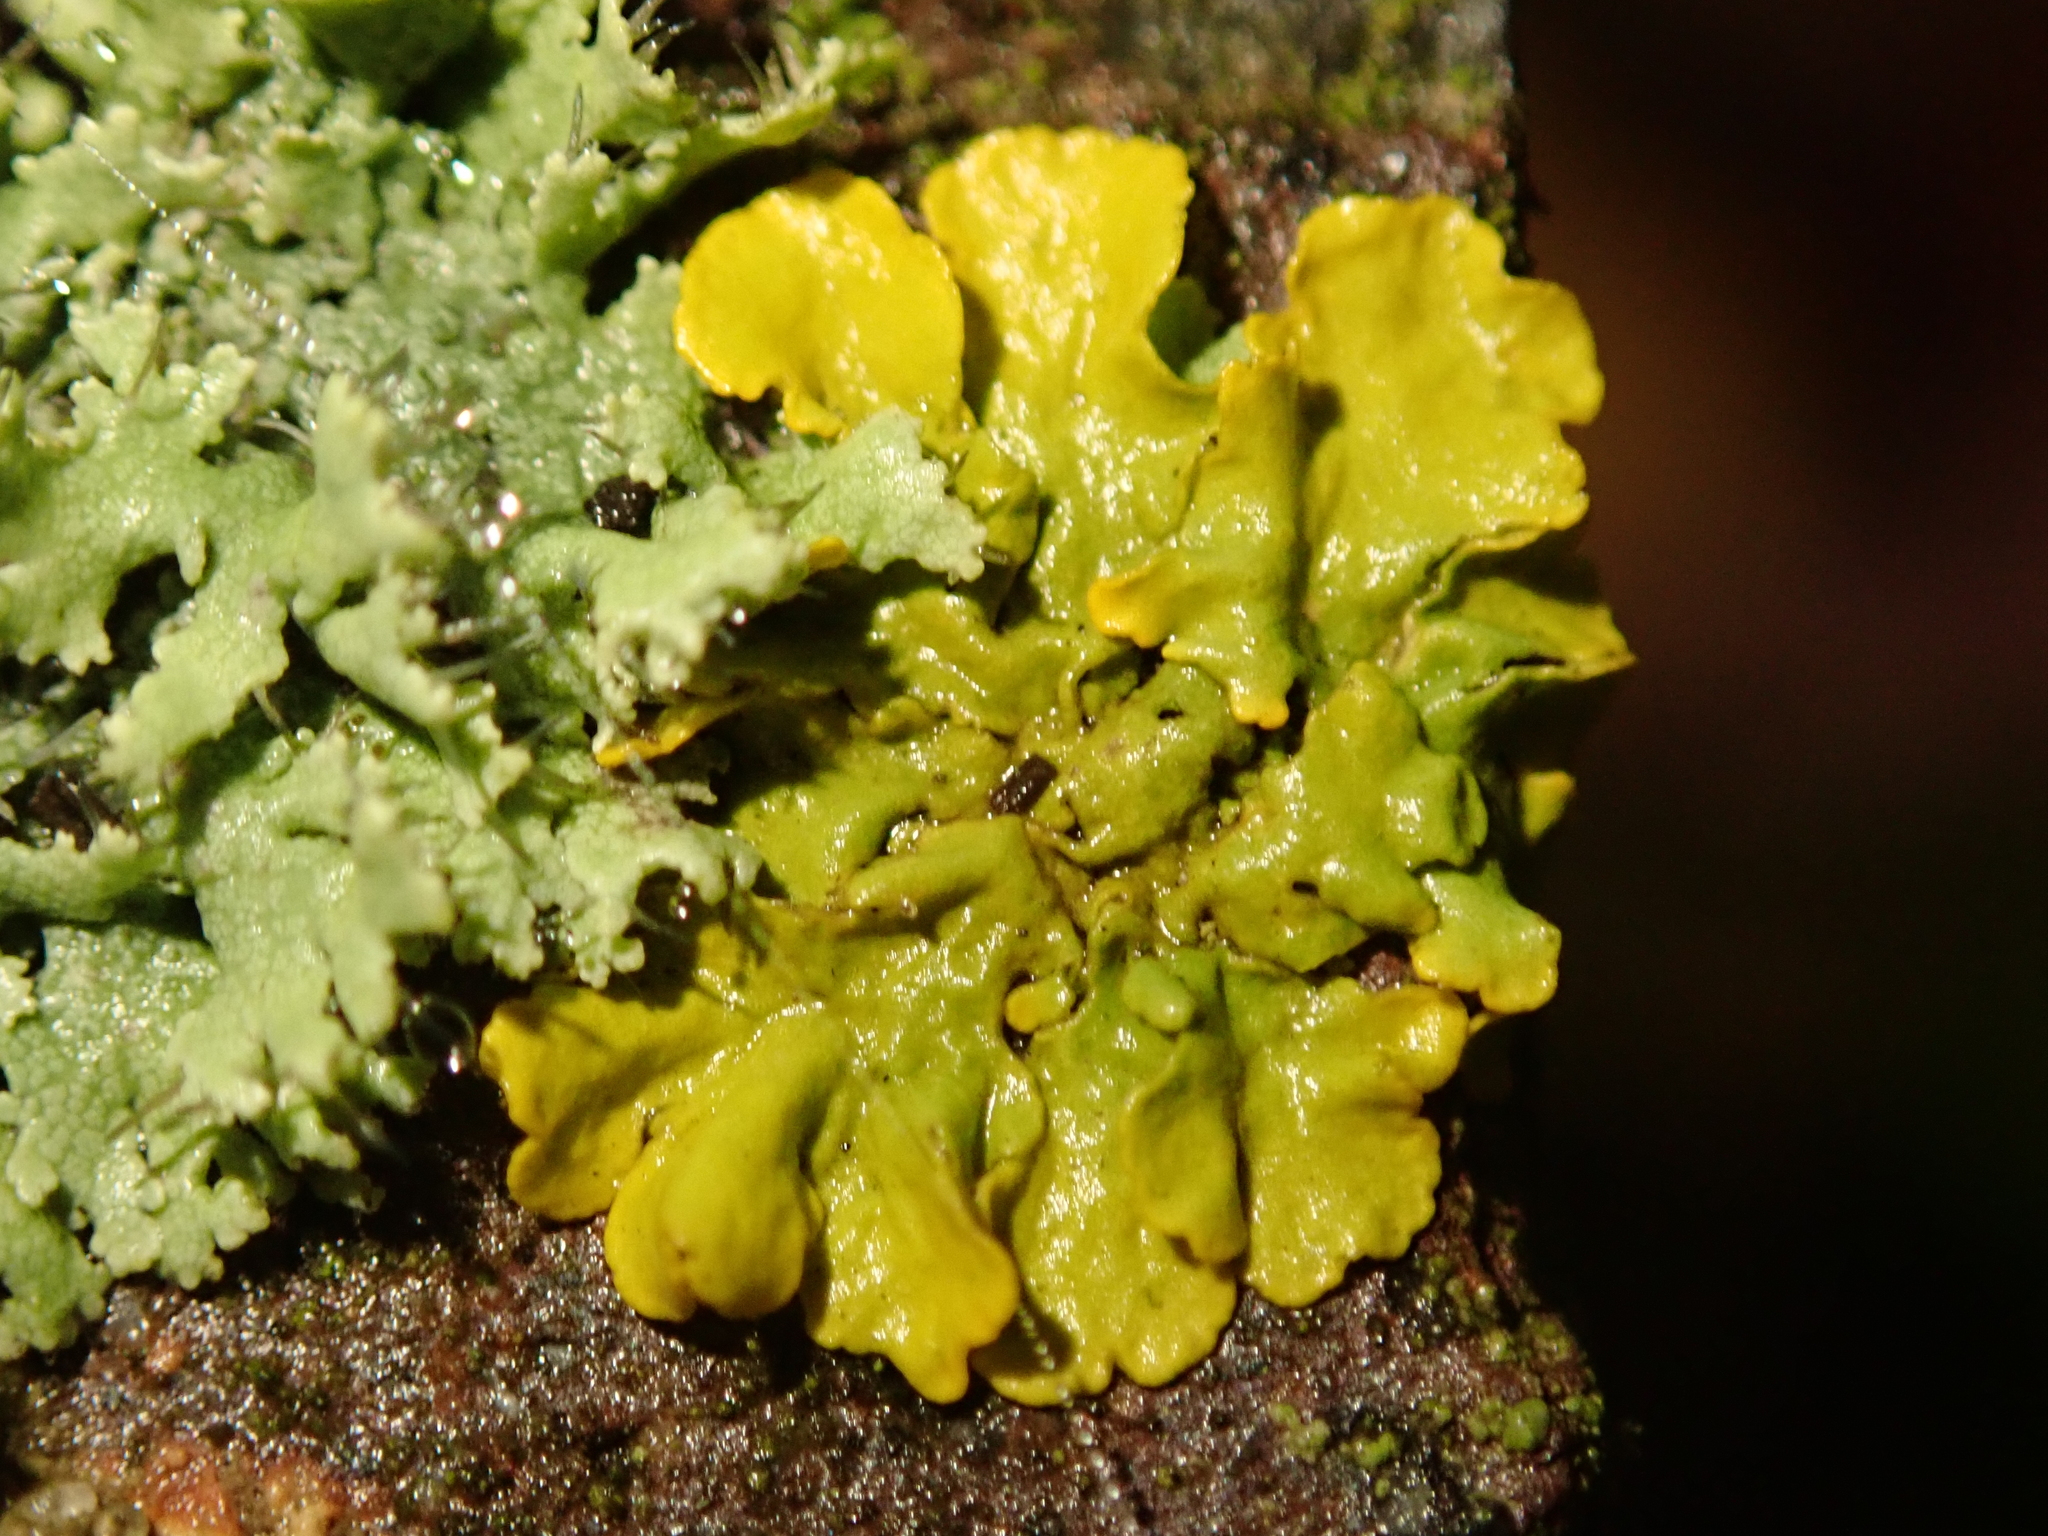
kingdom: Fungi
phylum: Ascomycota
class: Lecanoromycetes
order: Teloschistales
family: Teloschistaceae
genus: Xanthoria
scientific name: Xanthoria parietina
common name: Common orange lichen
